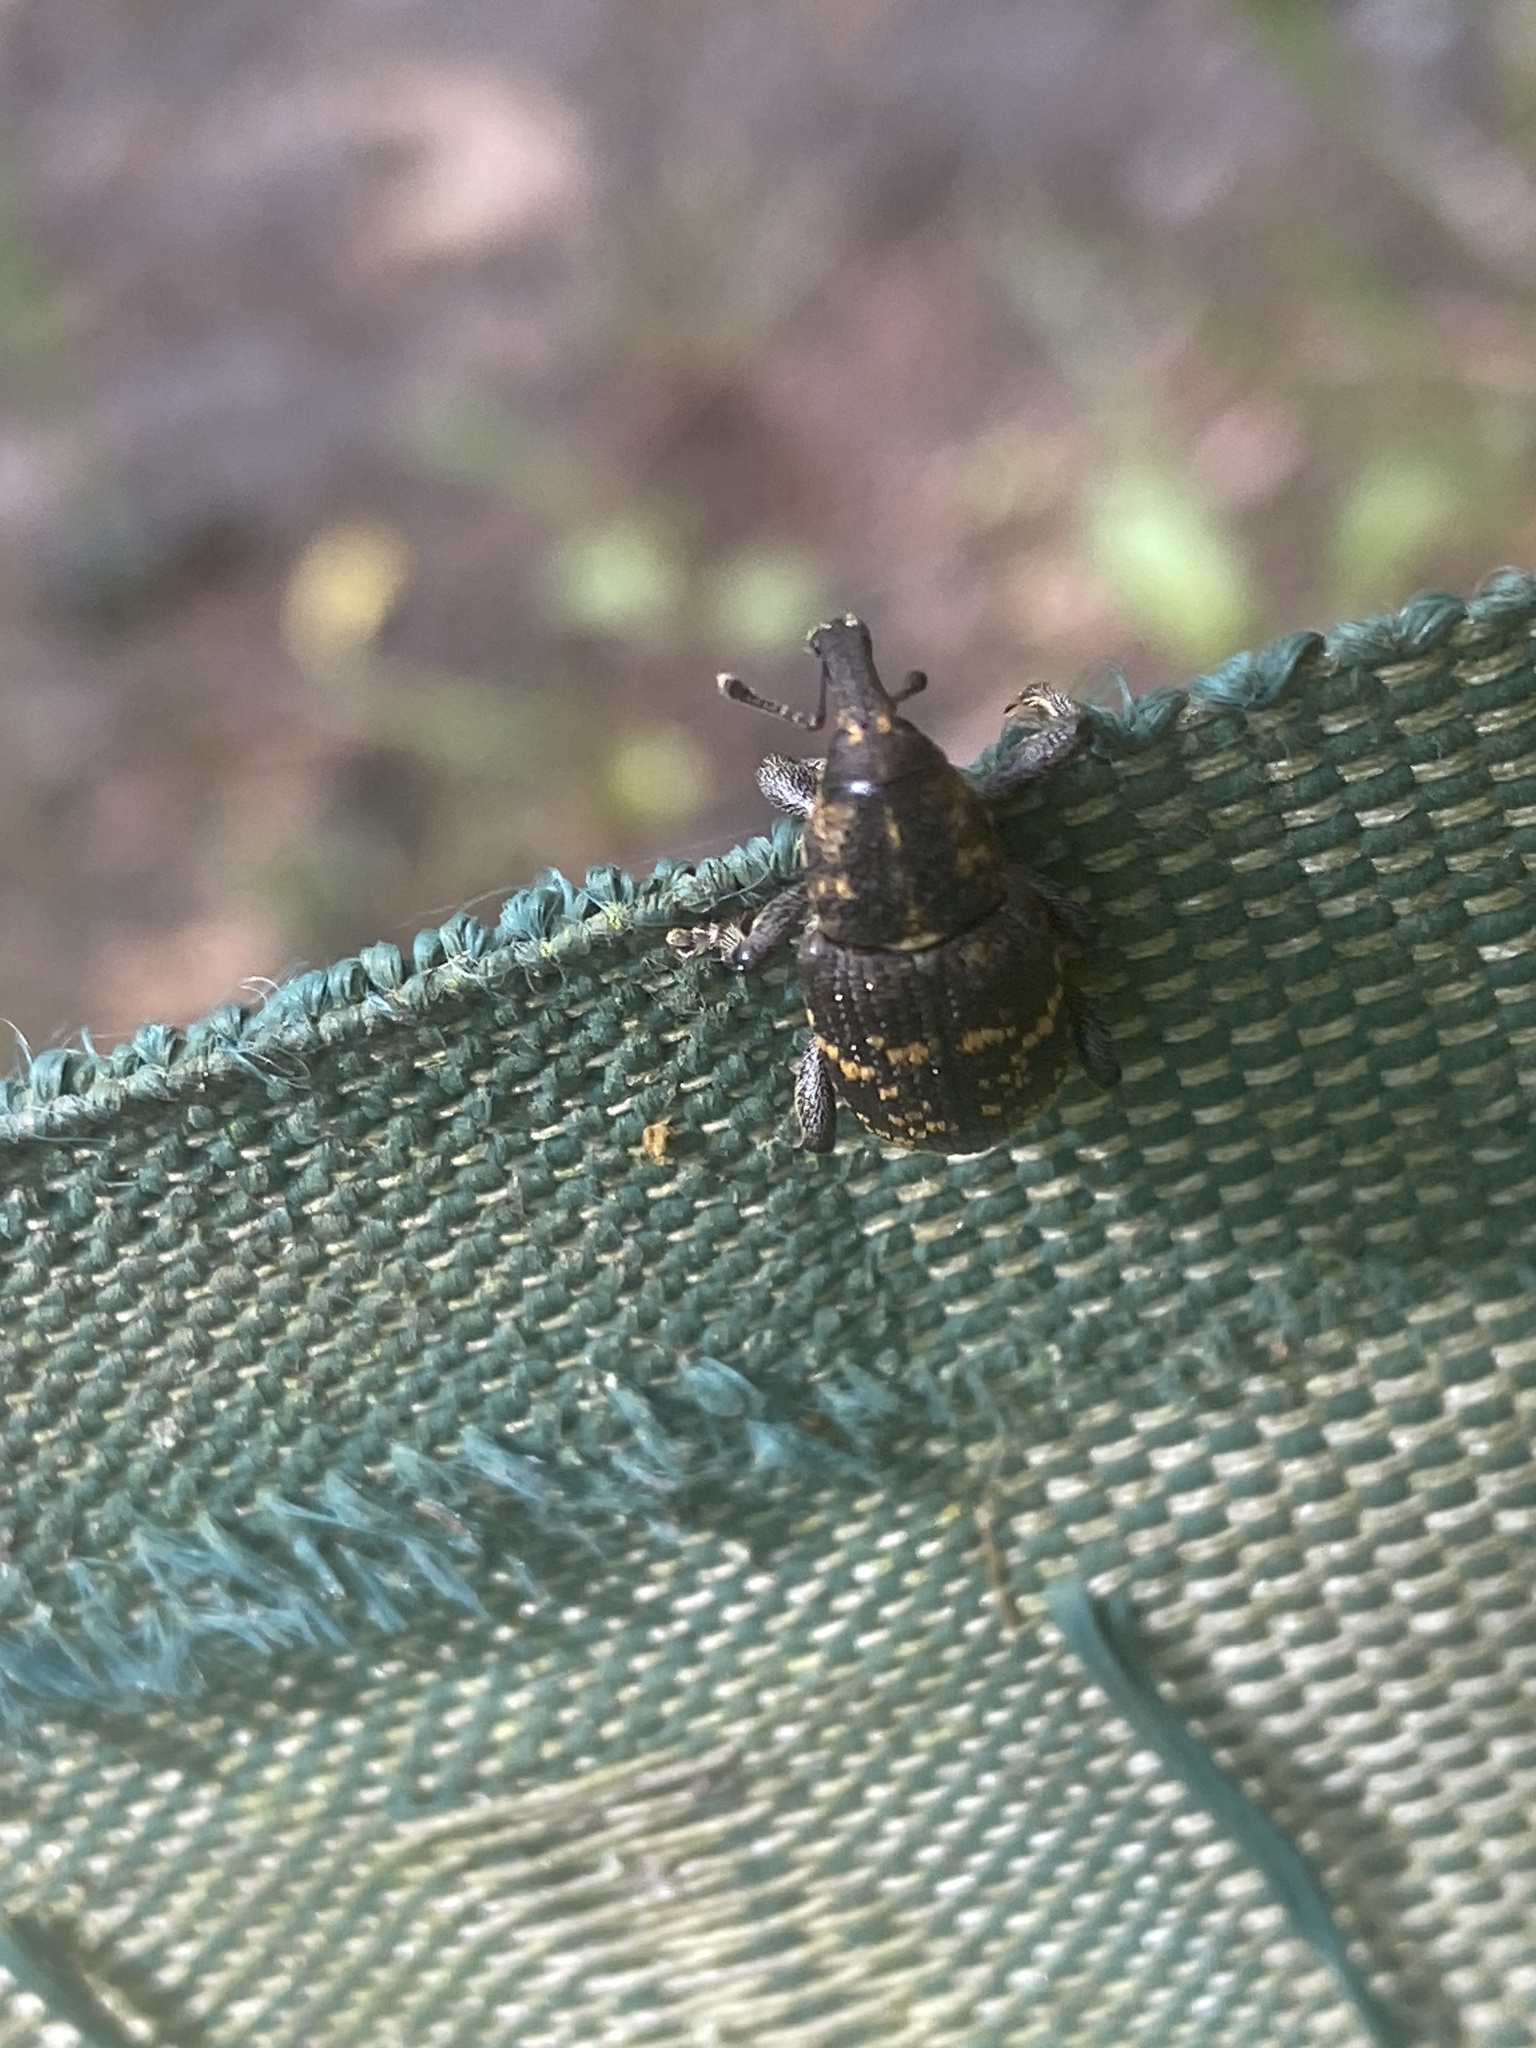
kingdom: Animalia
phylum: Arthropoda
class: Insecta
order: Coleoptera
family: Curculionidae
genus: Hylobius
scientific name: Hylobius abietis
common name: Large pine weevil
